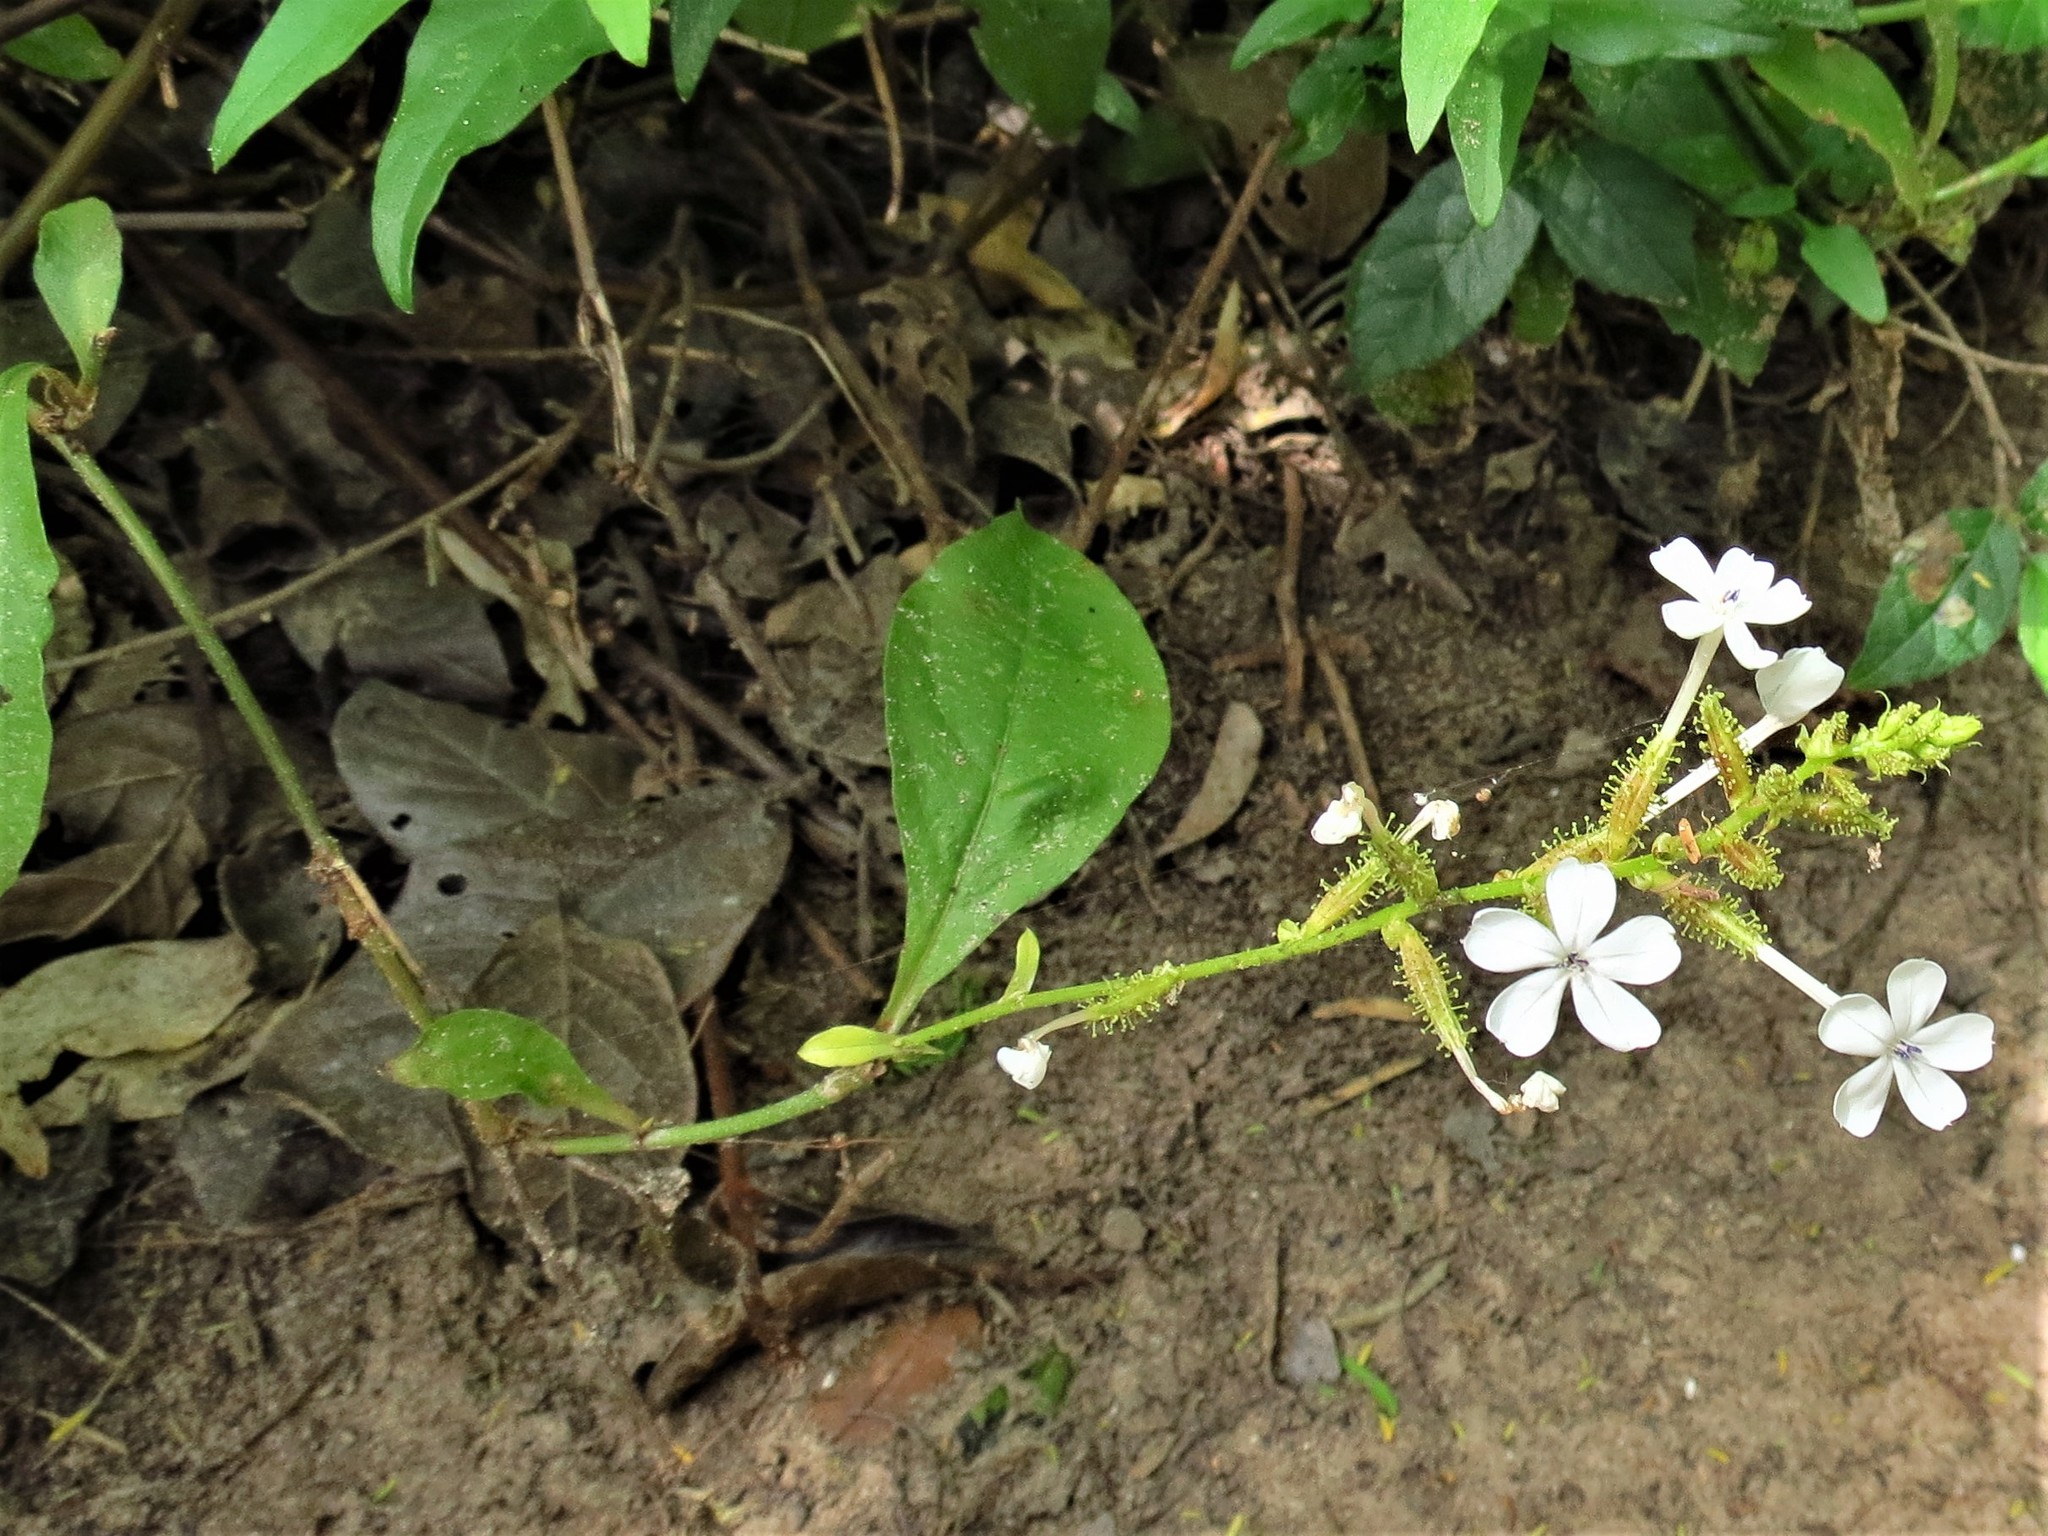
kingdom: Plantae
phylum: Tracheophyta
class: Magnoliopsida
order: Caryophyllales
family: Plumbaginaceae
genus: Plumbago
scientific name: Plumbago zeylanica
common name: Doctorbush
